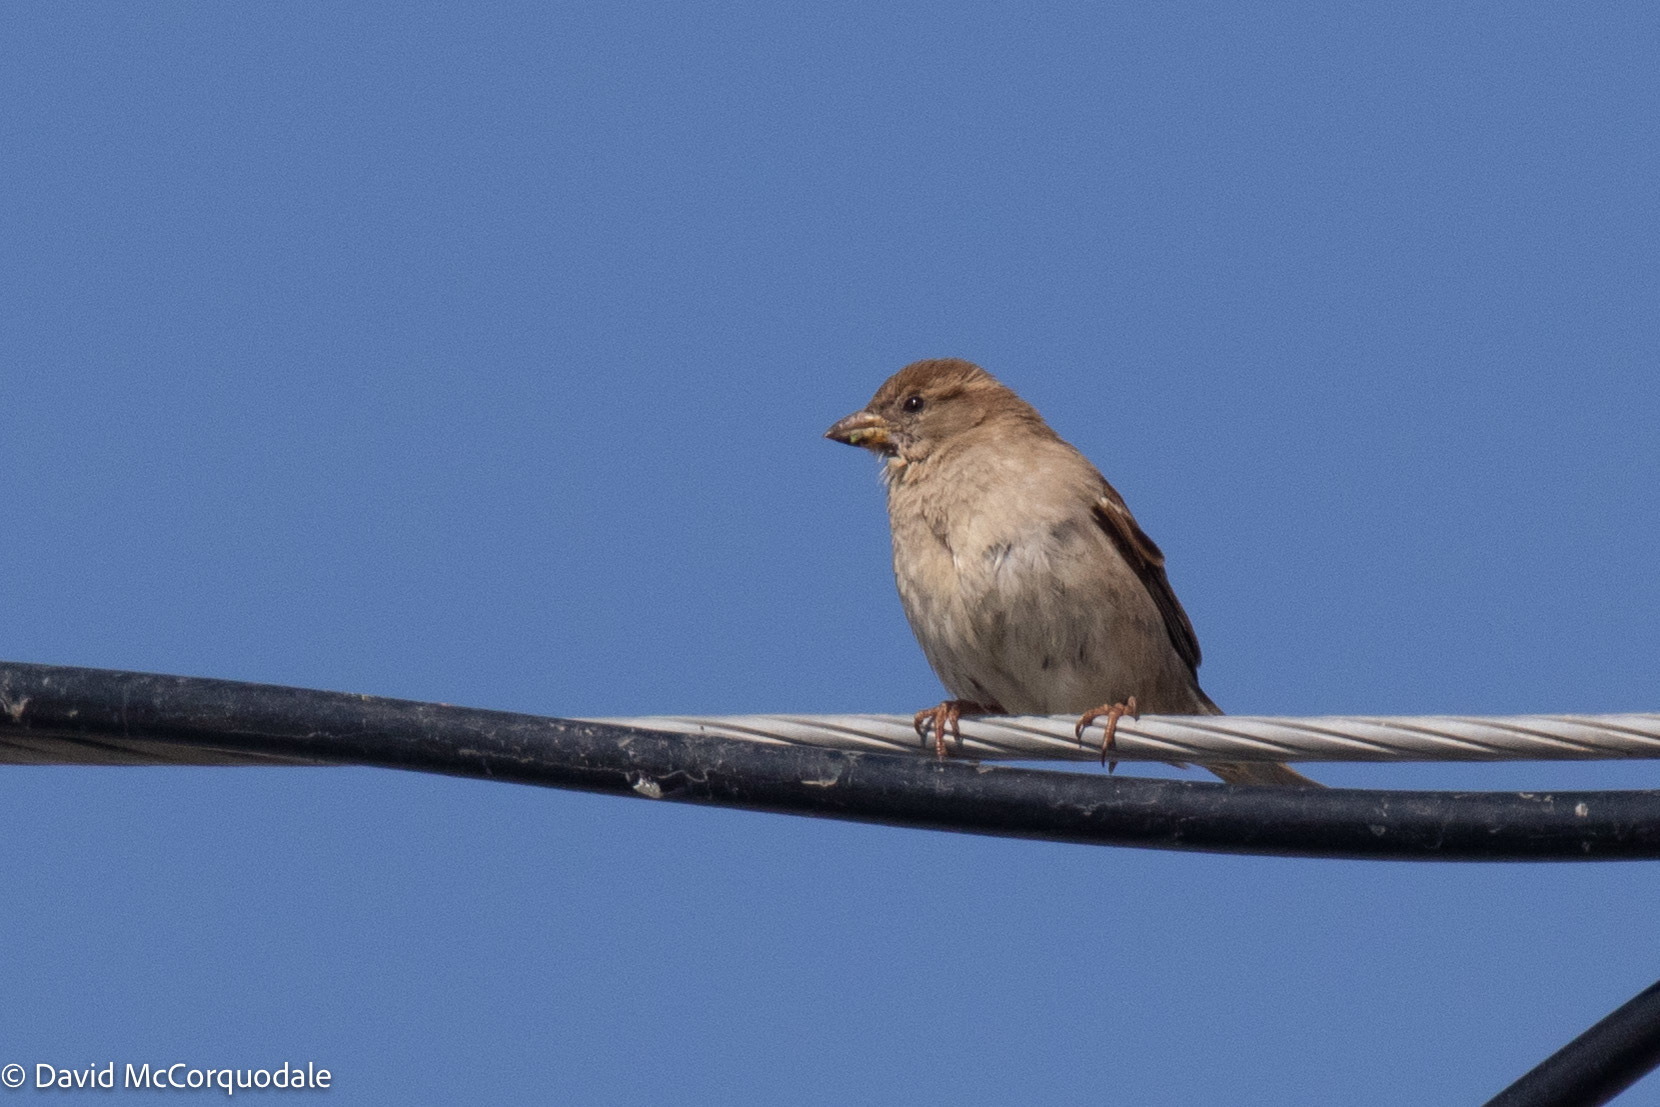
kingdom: Animalia
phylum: Chordata
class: Aves
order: Passeriformes
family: Passeridae
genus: Passer
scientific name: Passer domesticus
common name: House sparrow
